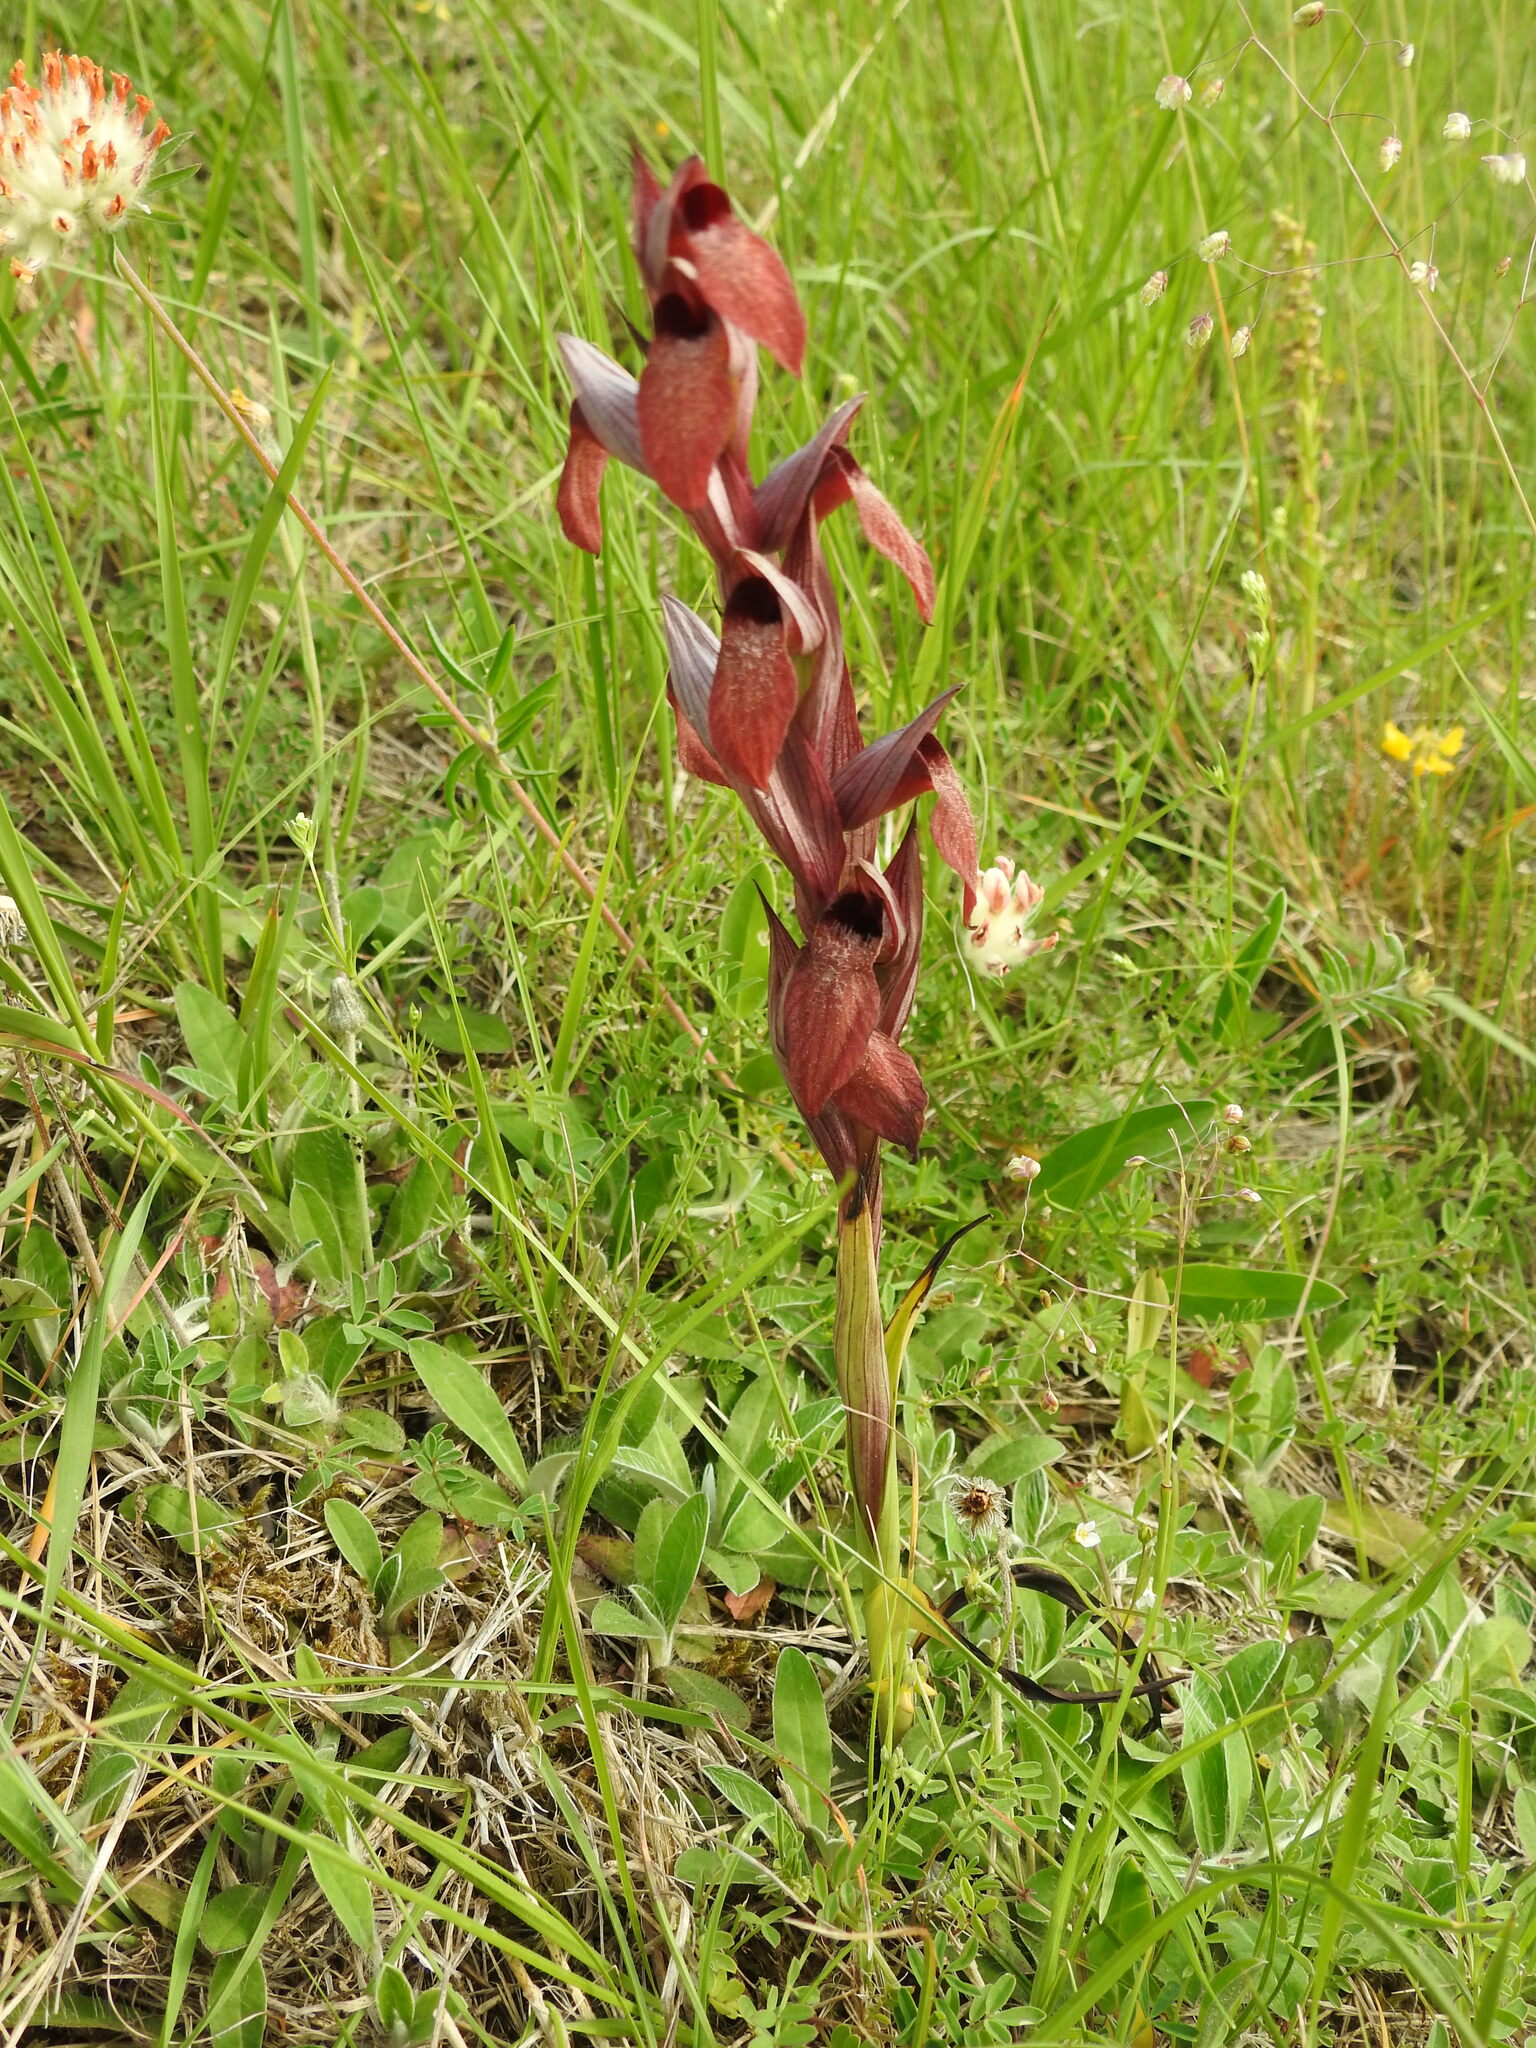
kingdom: Plantae
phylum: Tracheophyta
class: Liliopsida
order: Asparagales
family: Orchidaceae
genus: Serapias
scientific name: Serapias vomeracea
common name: Long-lipped tongue-orchid
